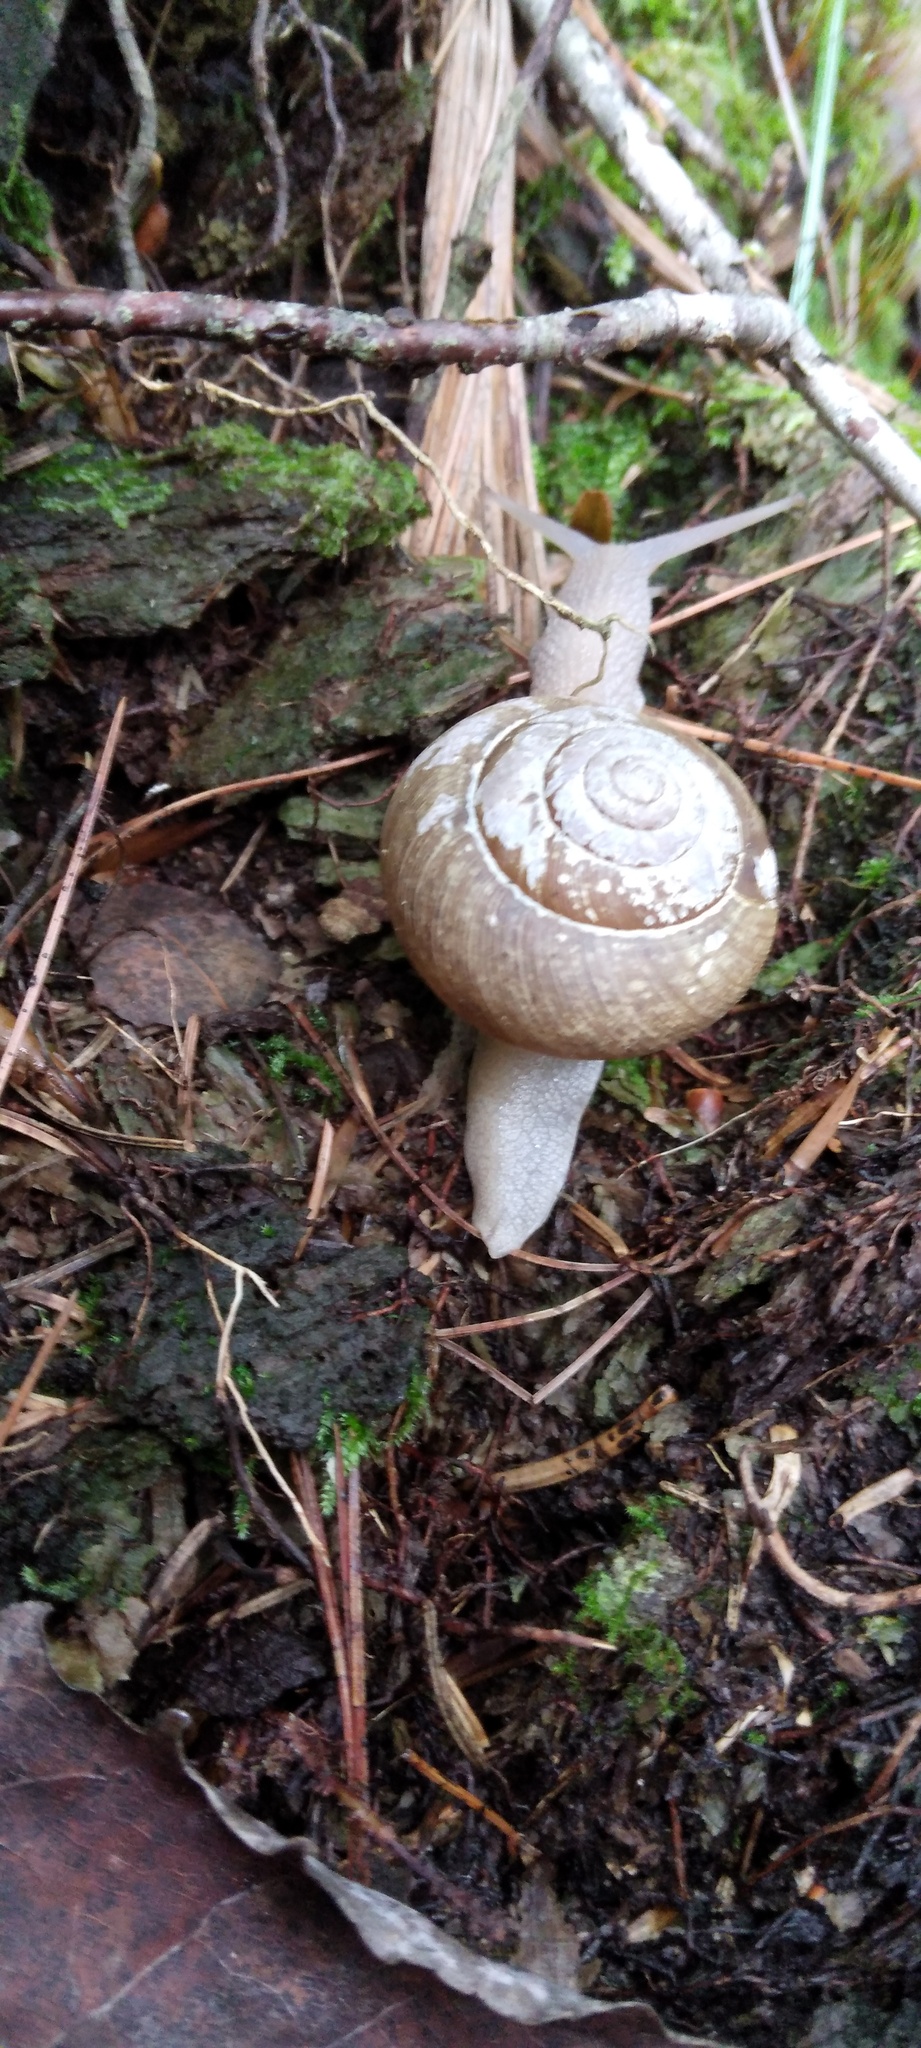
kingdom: Animalia
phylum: Mollusca
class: Gastropoda
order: Stylommatophora
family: Polygyridae
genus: Neohelix
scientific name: Neohelix albolabris
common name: Eastern whitelip
